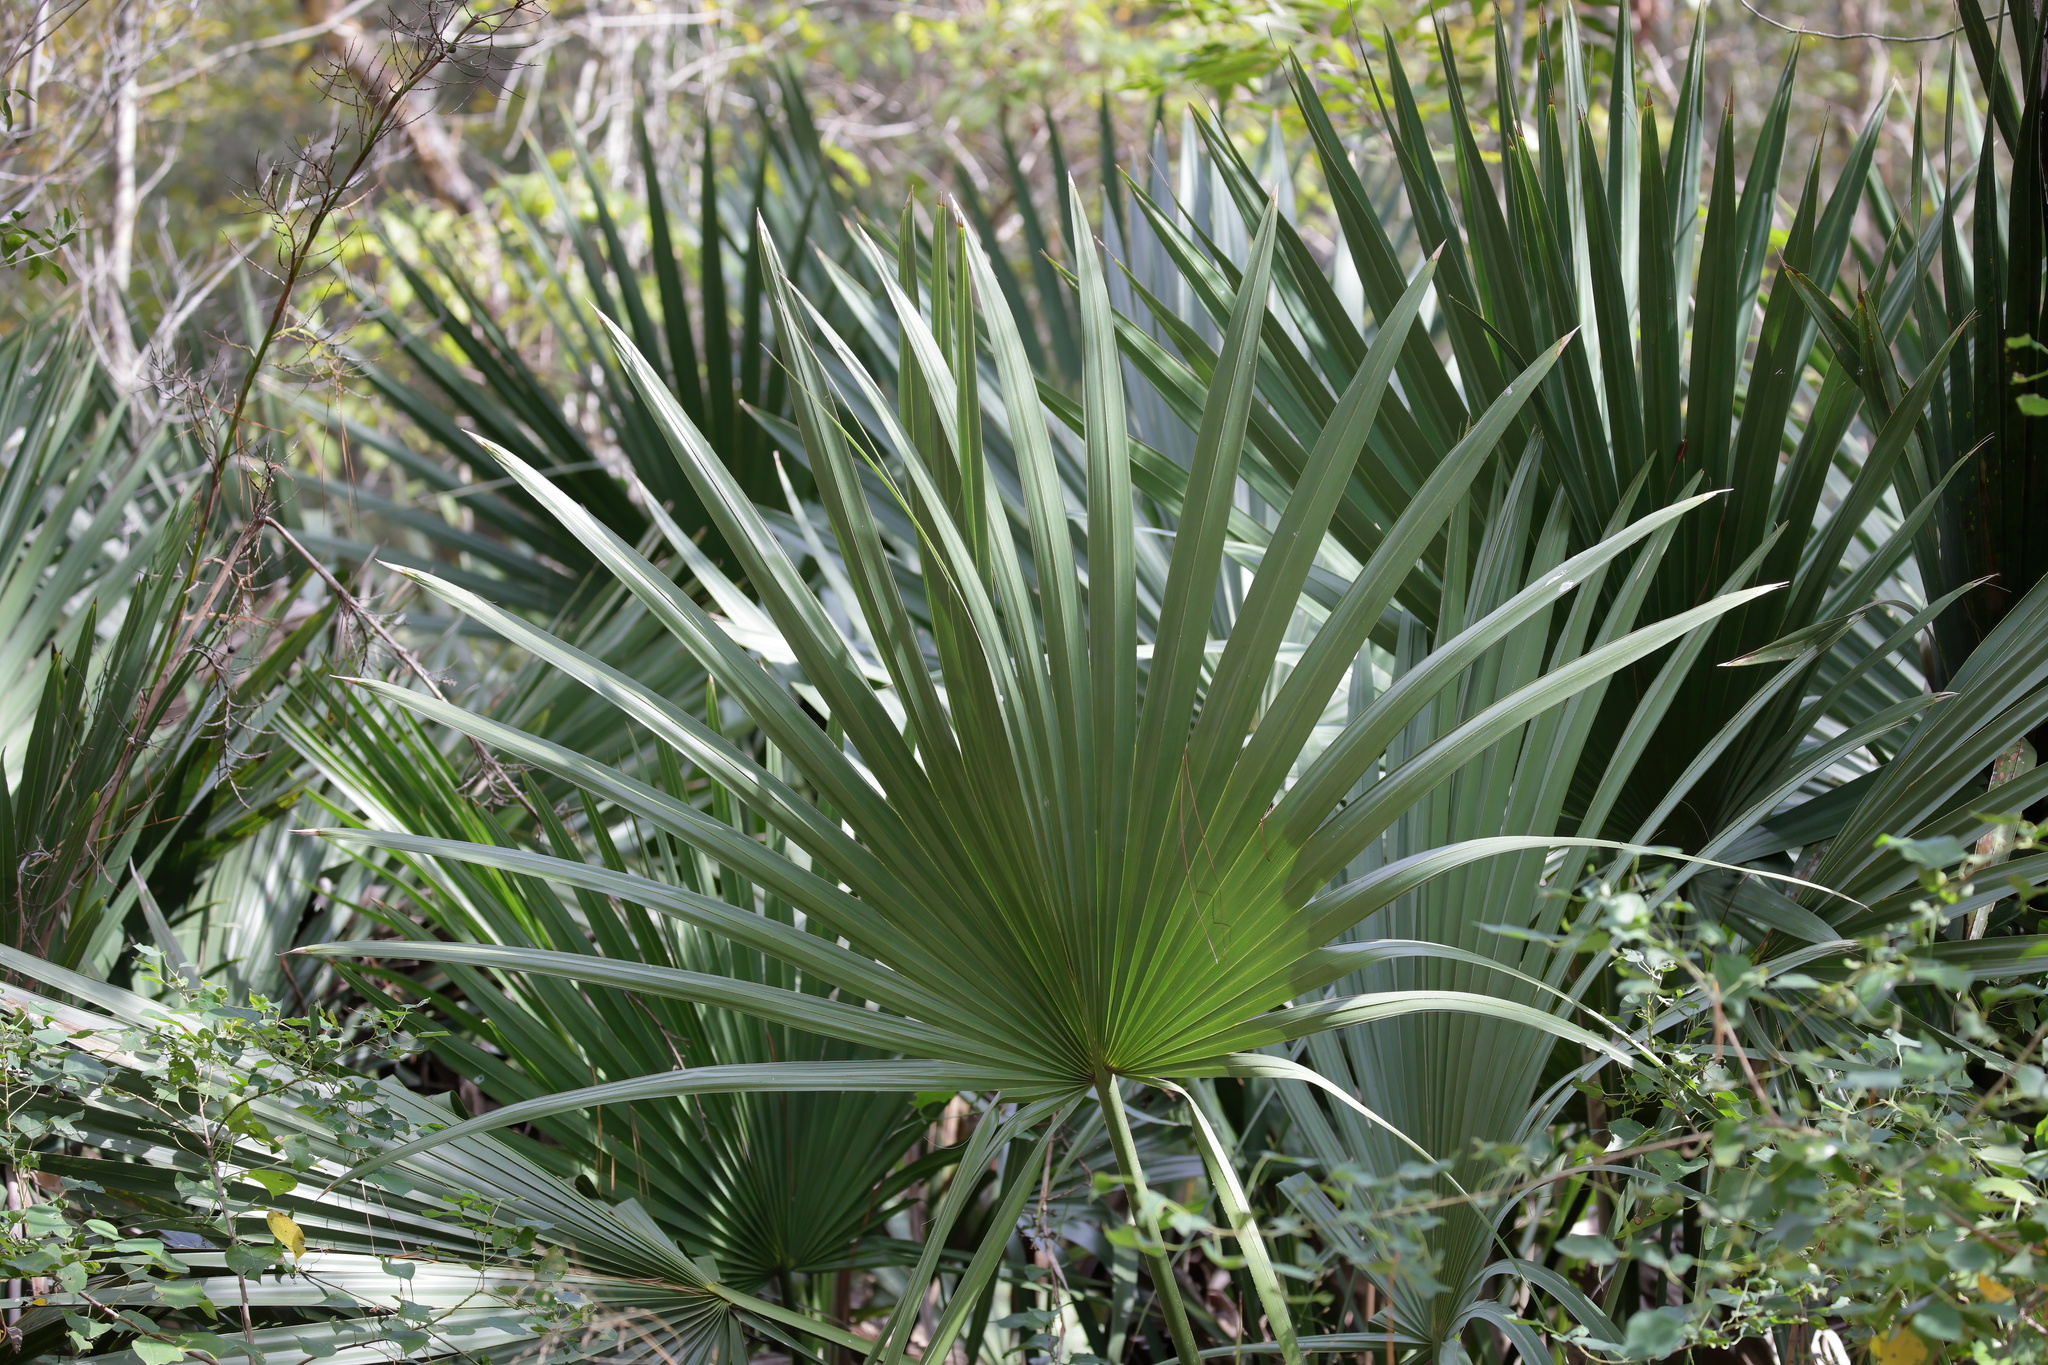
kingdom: Plantae
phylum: Tracheophyta
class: Liliopsida
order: Arecales
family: Arecaceae
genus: Sabal
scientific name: Sabal minor
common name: Dwarf palmetto
